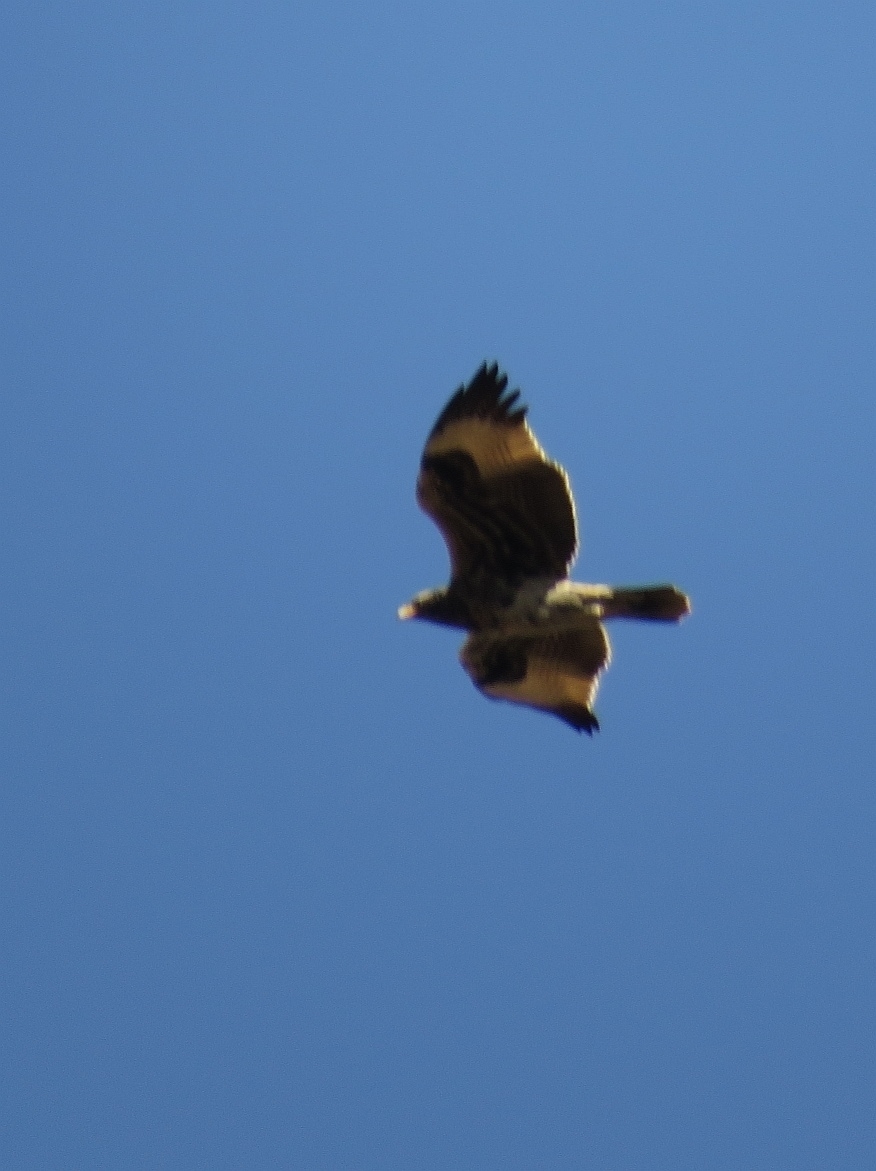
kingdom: Animalia
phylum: Chordata
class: Aves
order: Accipitriformes
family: Accipitridae
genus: Aquila
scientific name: Aquila verreauxii
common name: Verreaux's eagle
